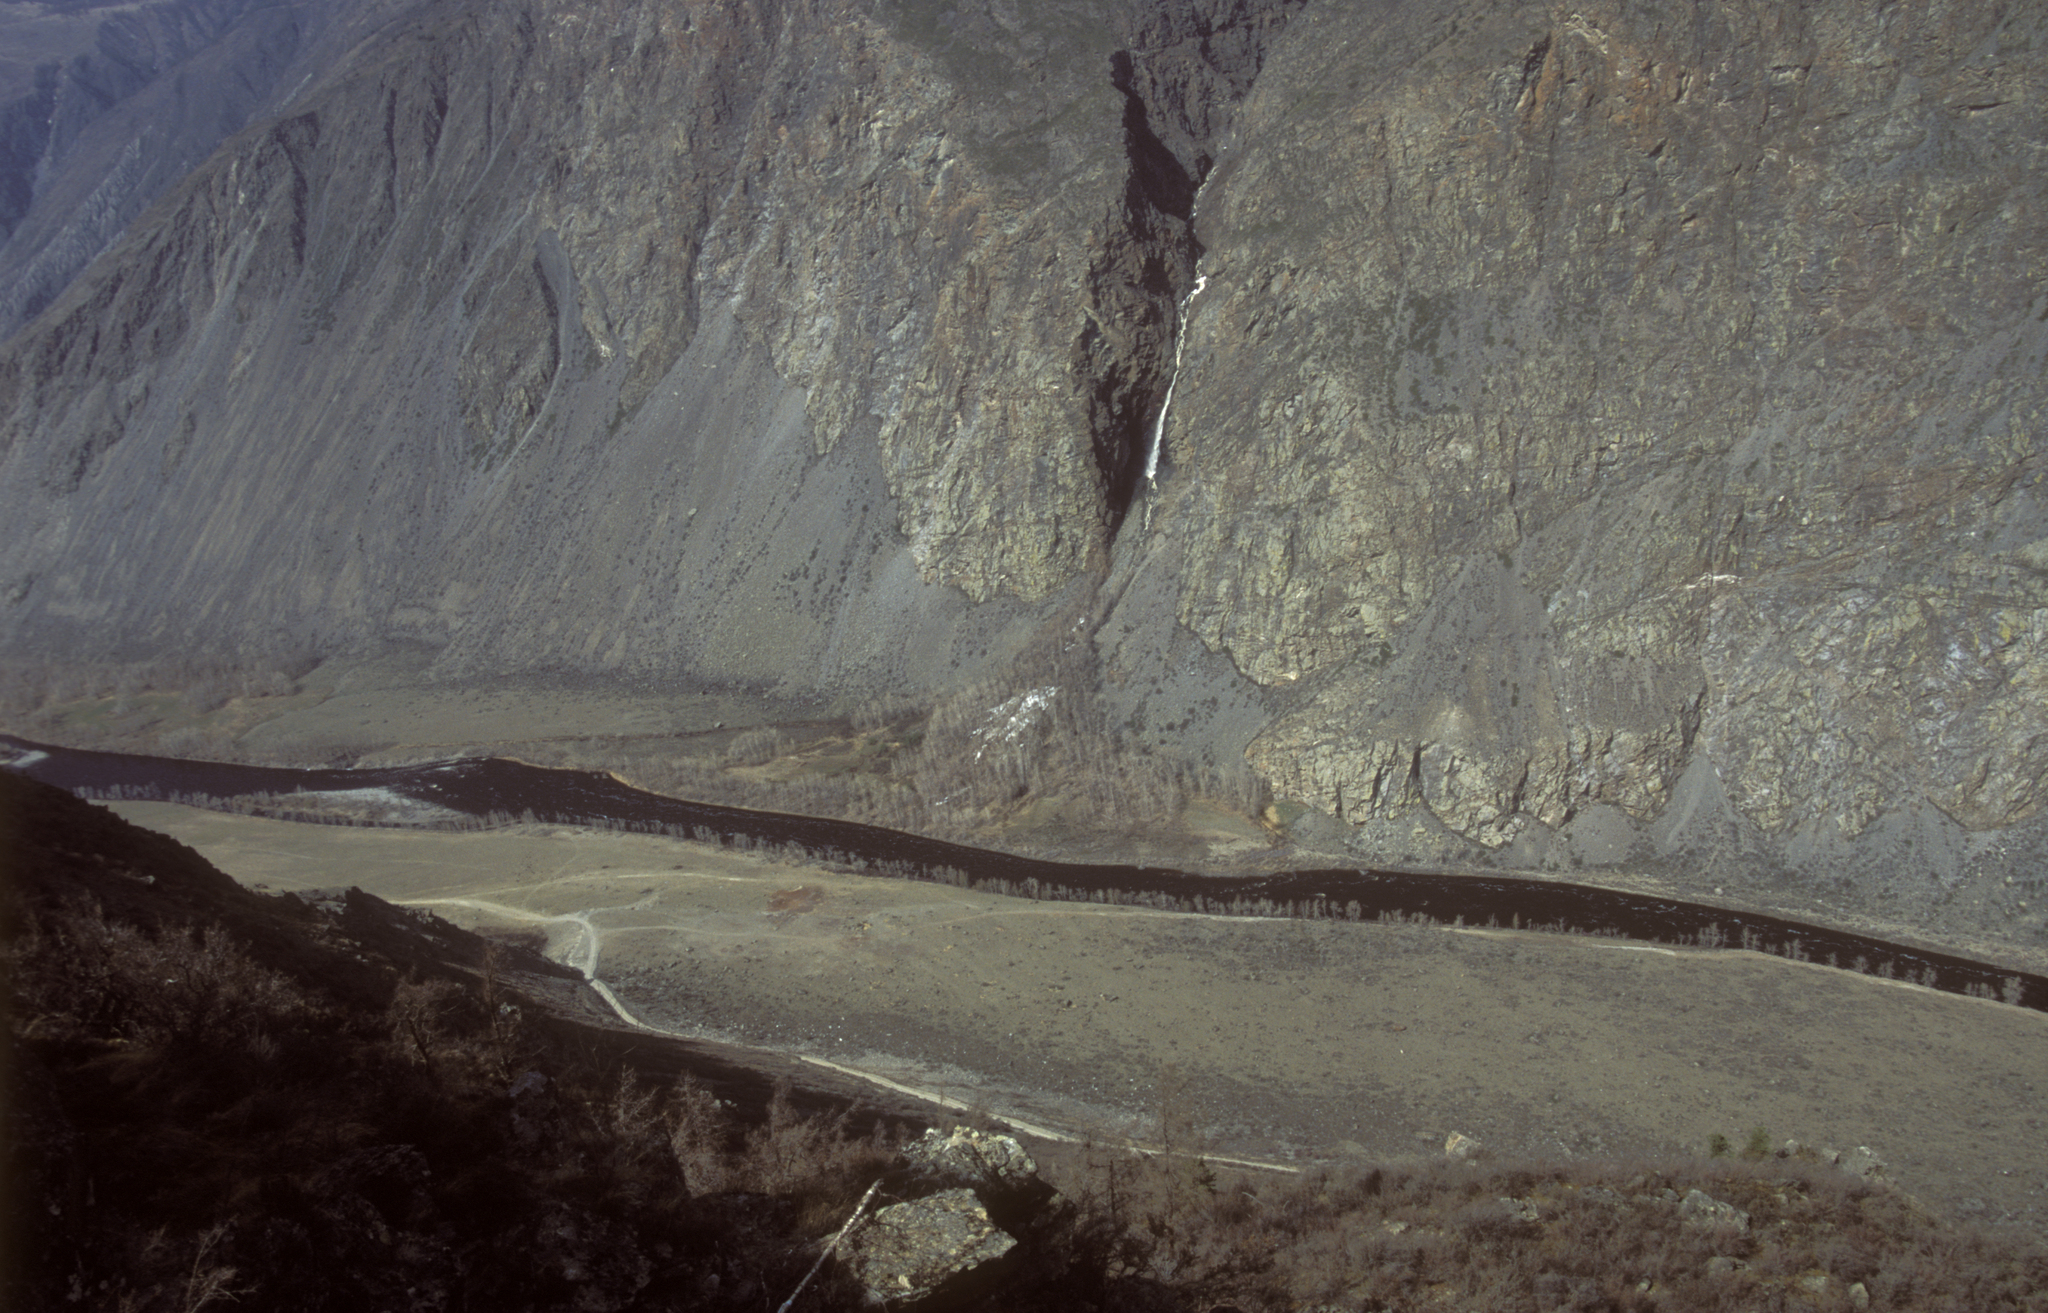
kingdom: Plantae
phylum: Tracheophyta
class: Magnoliopsida
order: Malpighiales
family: Salicaceae
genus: Populus
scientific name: Populus laurifolia
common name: Laurel-leaf poplar
